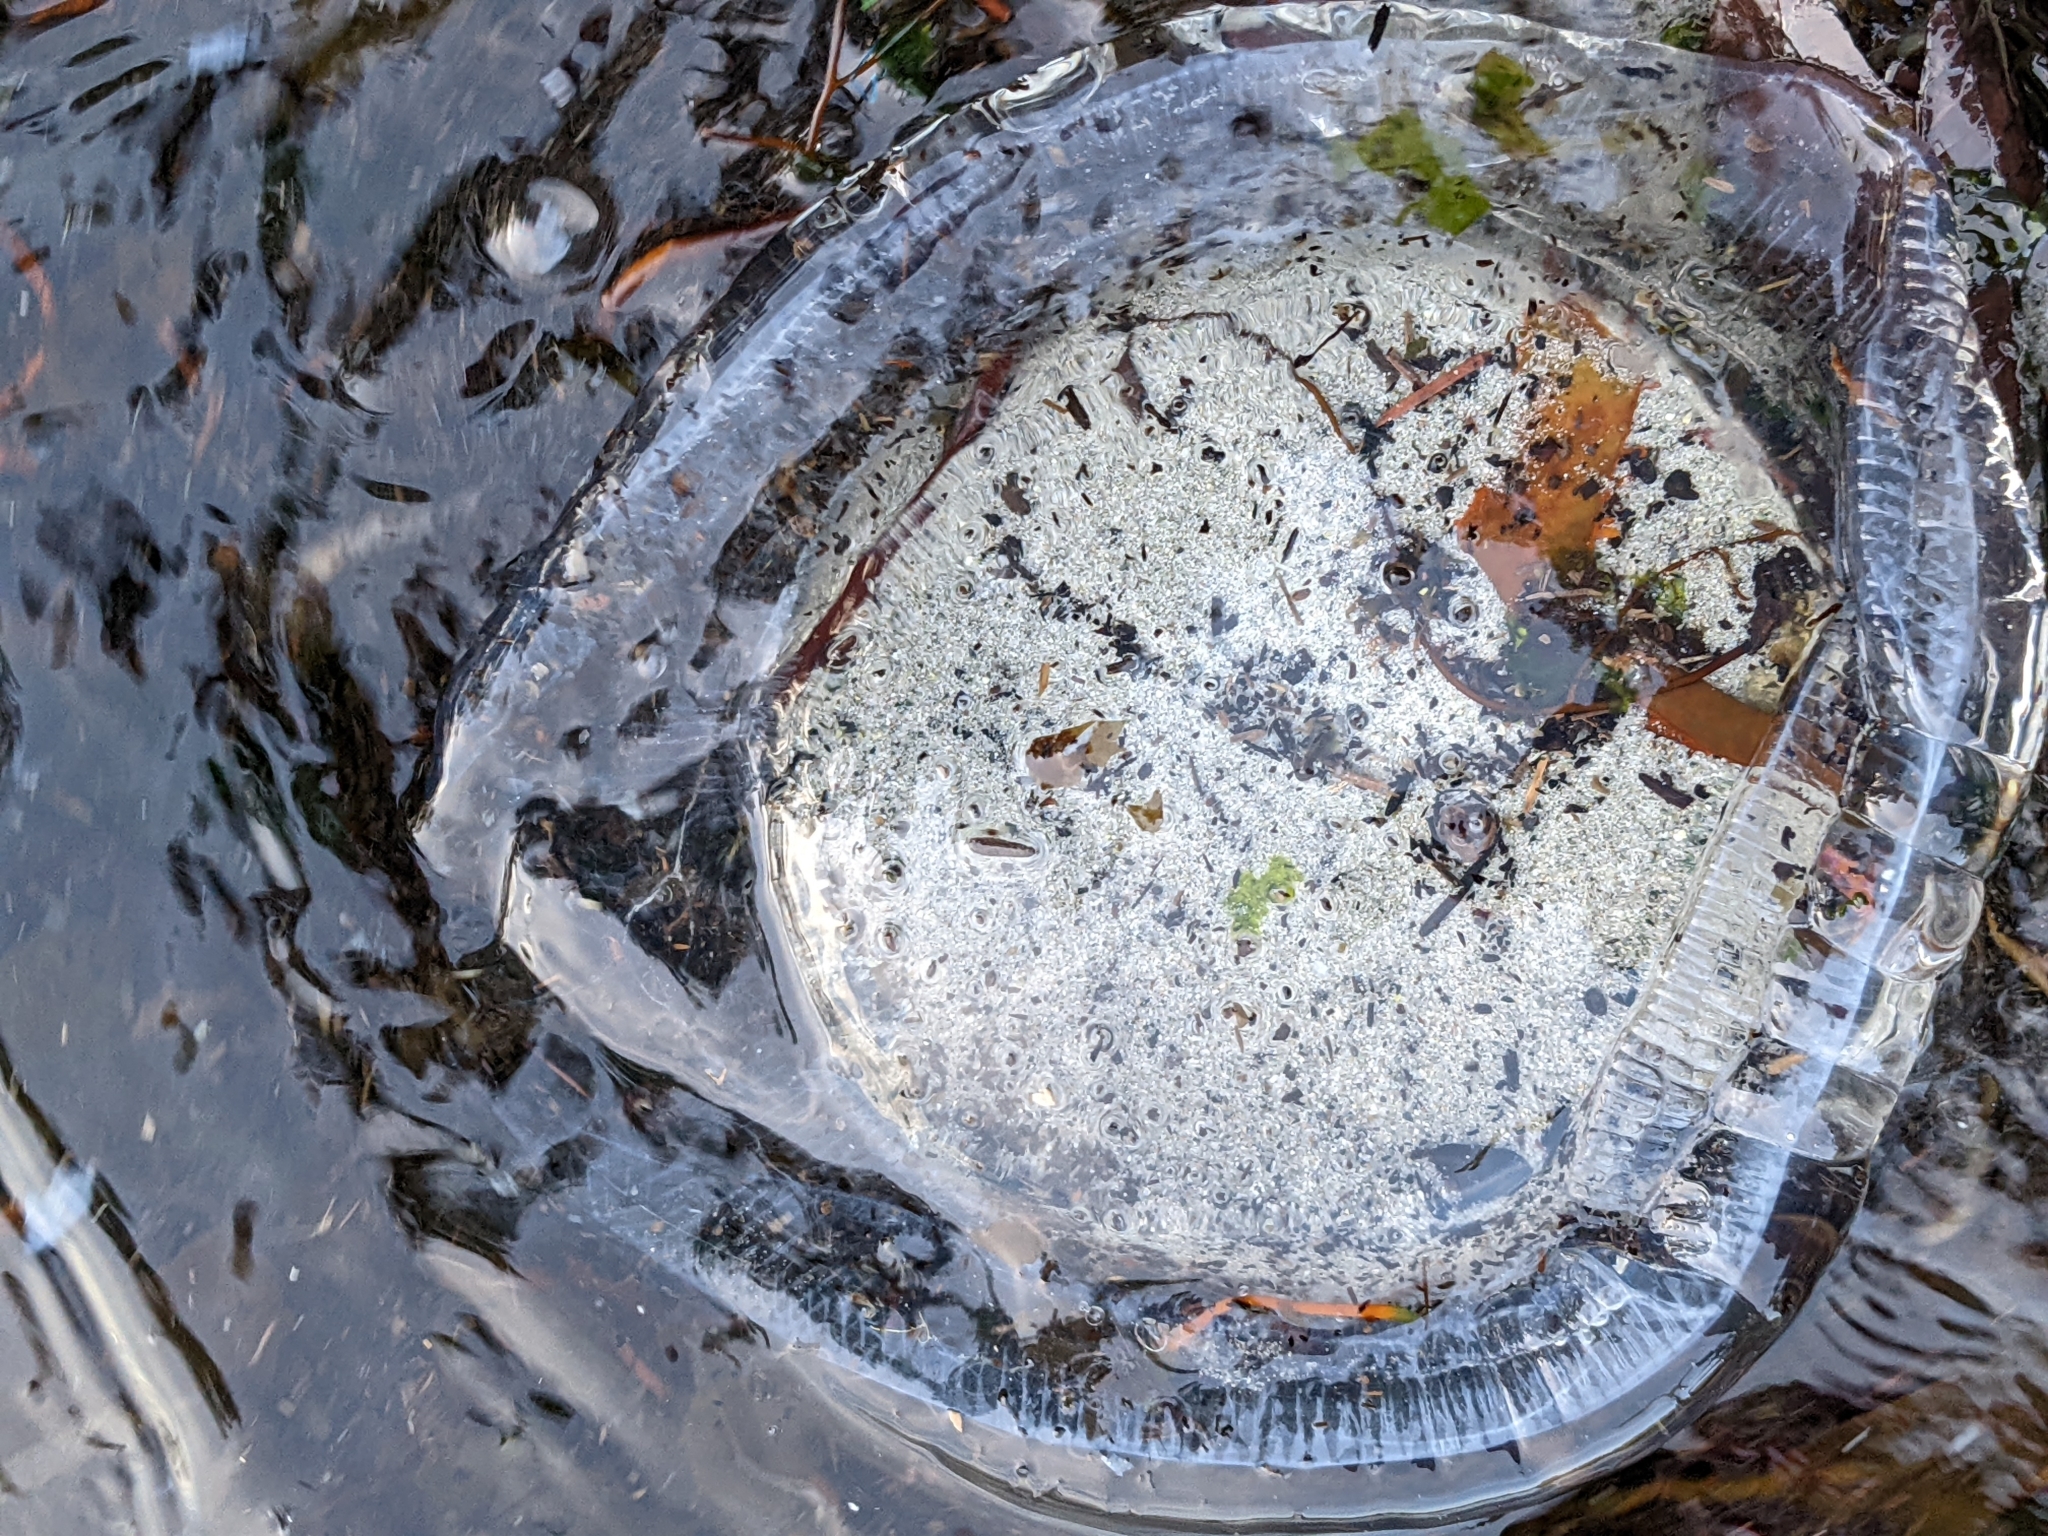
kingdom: Animalia
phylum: Cnidaria
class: Hydrozoa
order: Leptothecata
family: Aequoreidae
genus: Aequorea
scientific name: Aequorea victoria
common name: Water jellyfish
